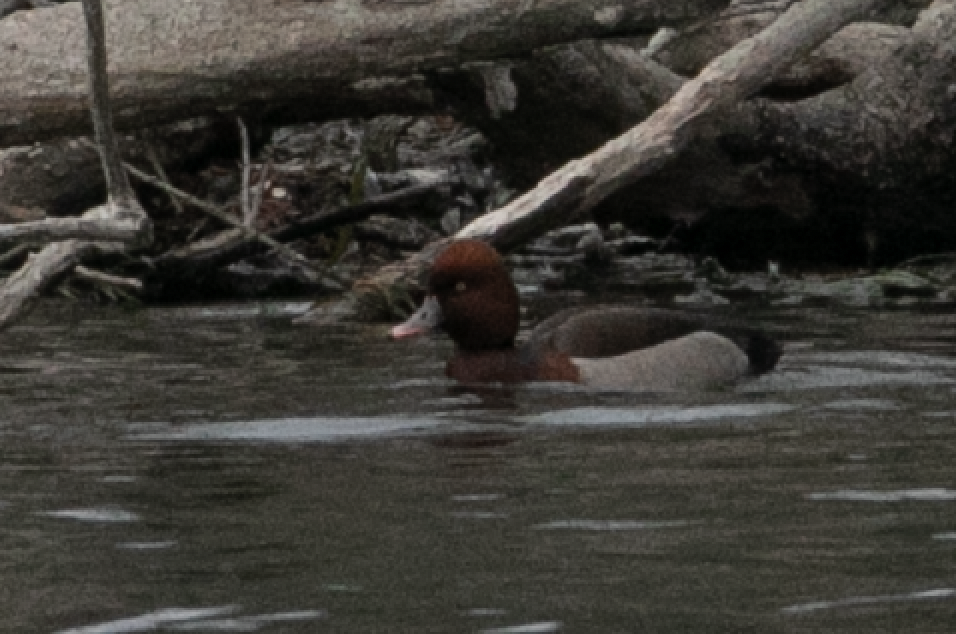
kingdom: Animalia
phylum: Chordata
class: Aves
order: Anseriformes
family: Anatidae
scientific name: Anatidae
